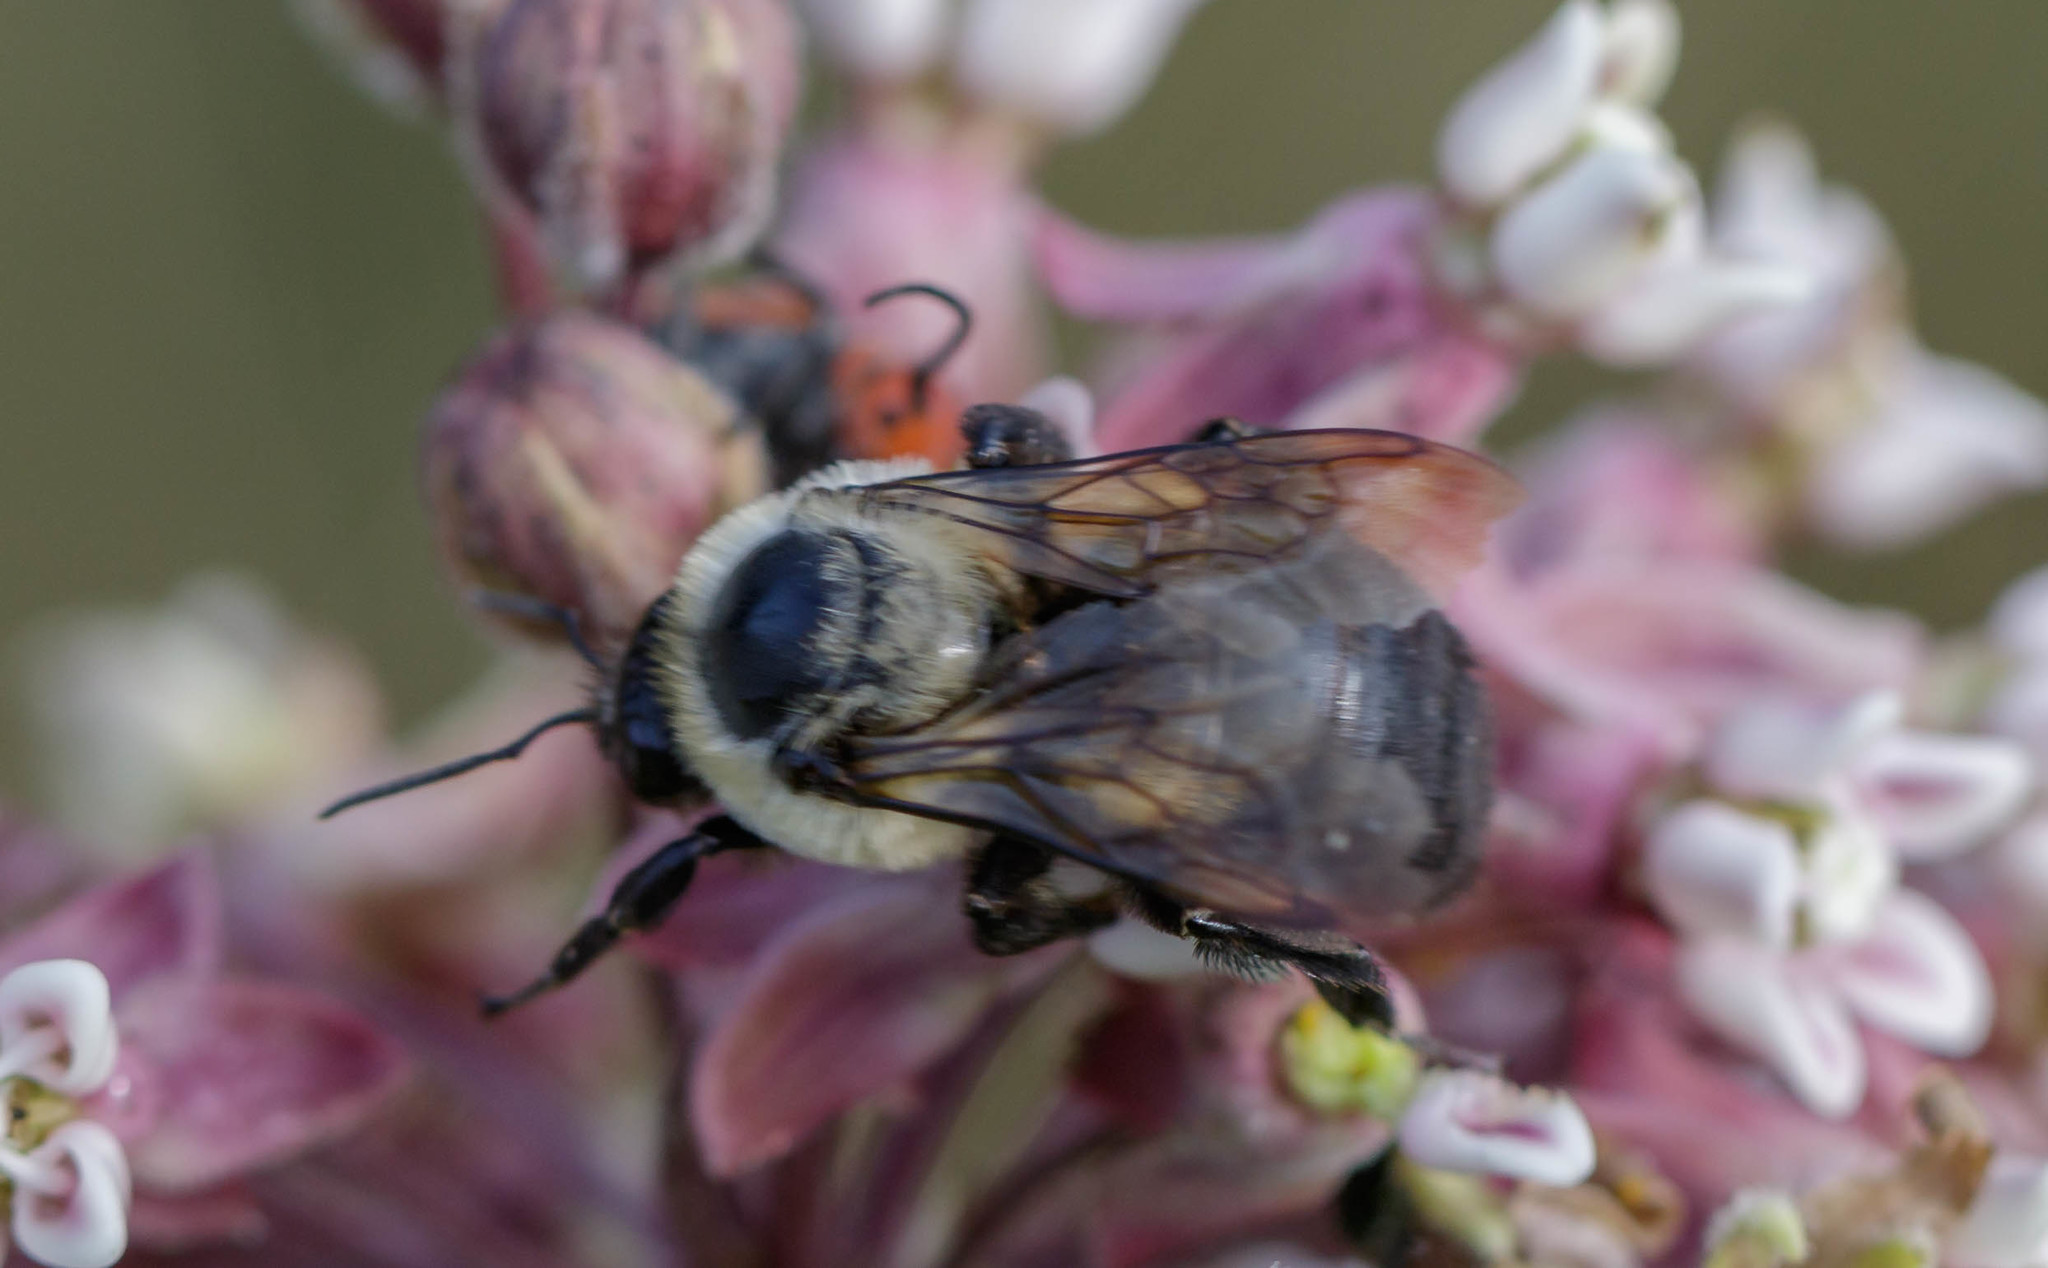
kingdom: Animalia
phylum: Arthropoda
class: Insecta
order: Hymenoptera
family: Apidae
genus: Bombus
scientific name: Bombus griseocollis
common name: Brown-belted bumble bee
